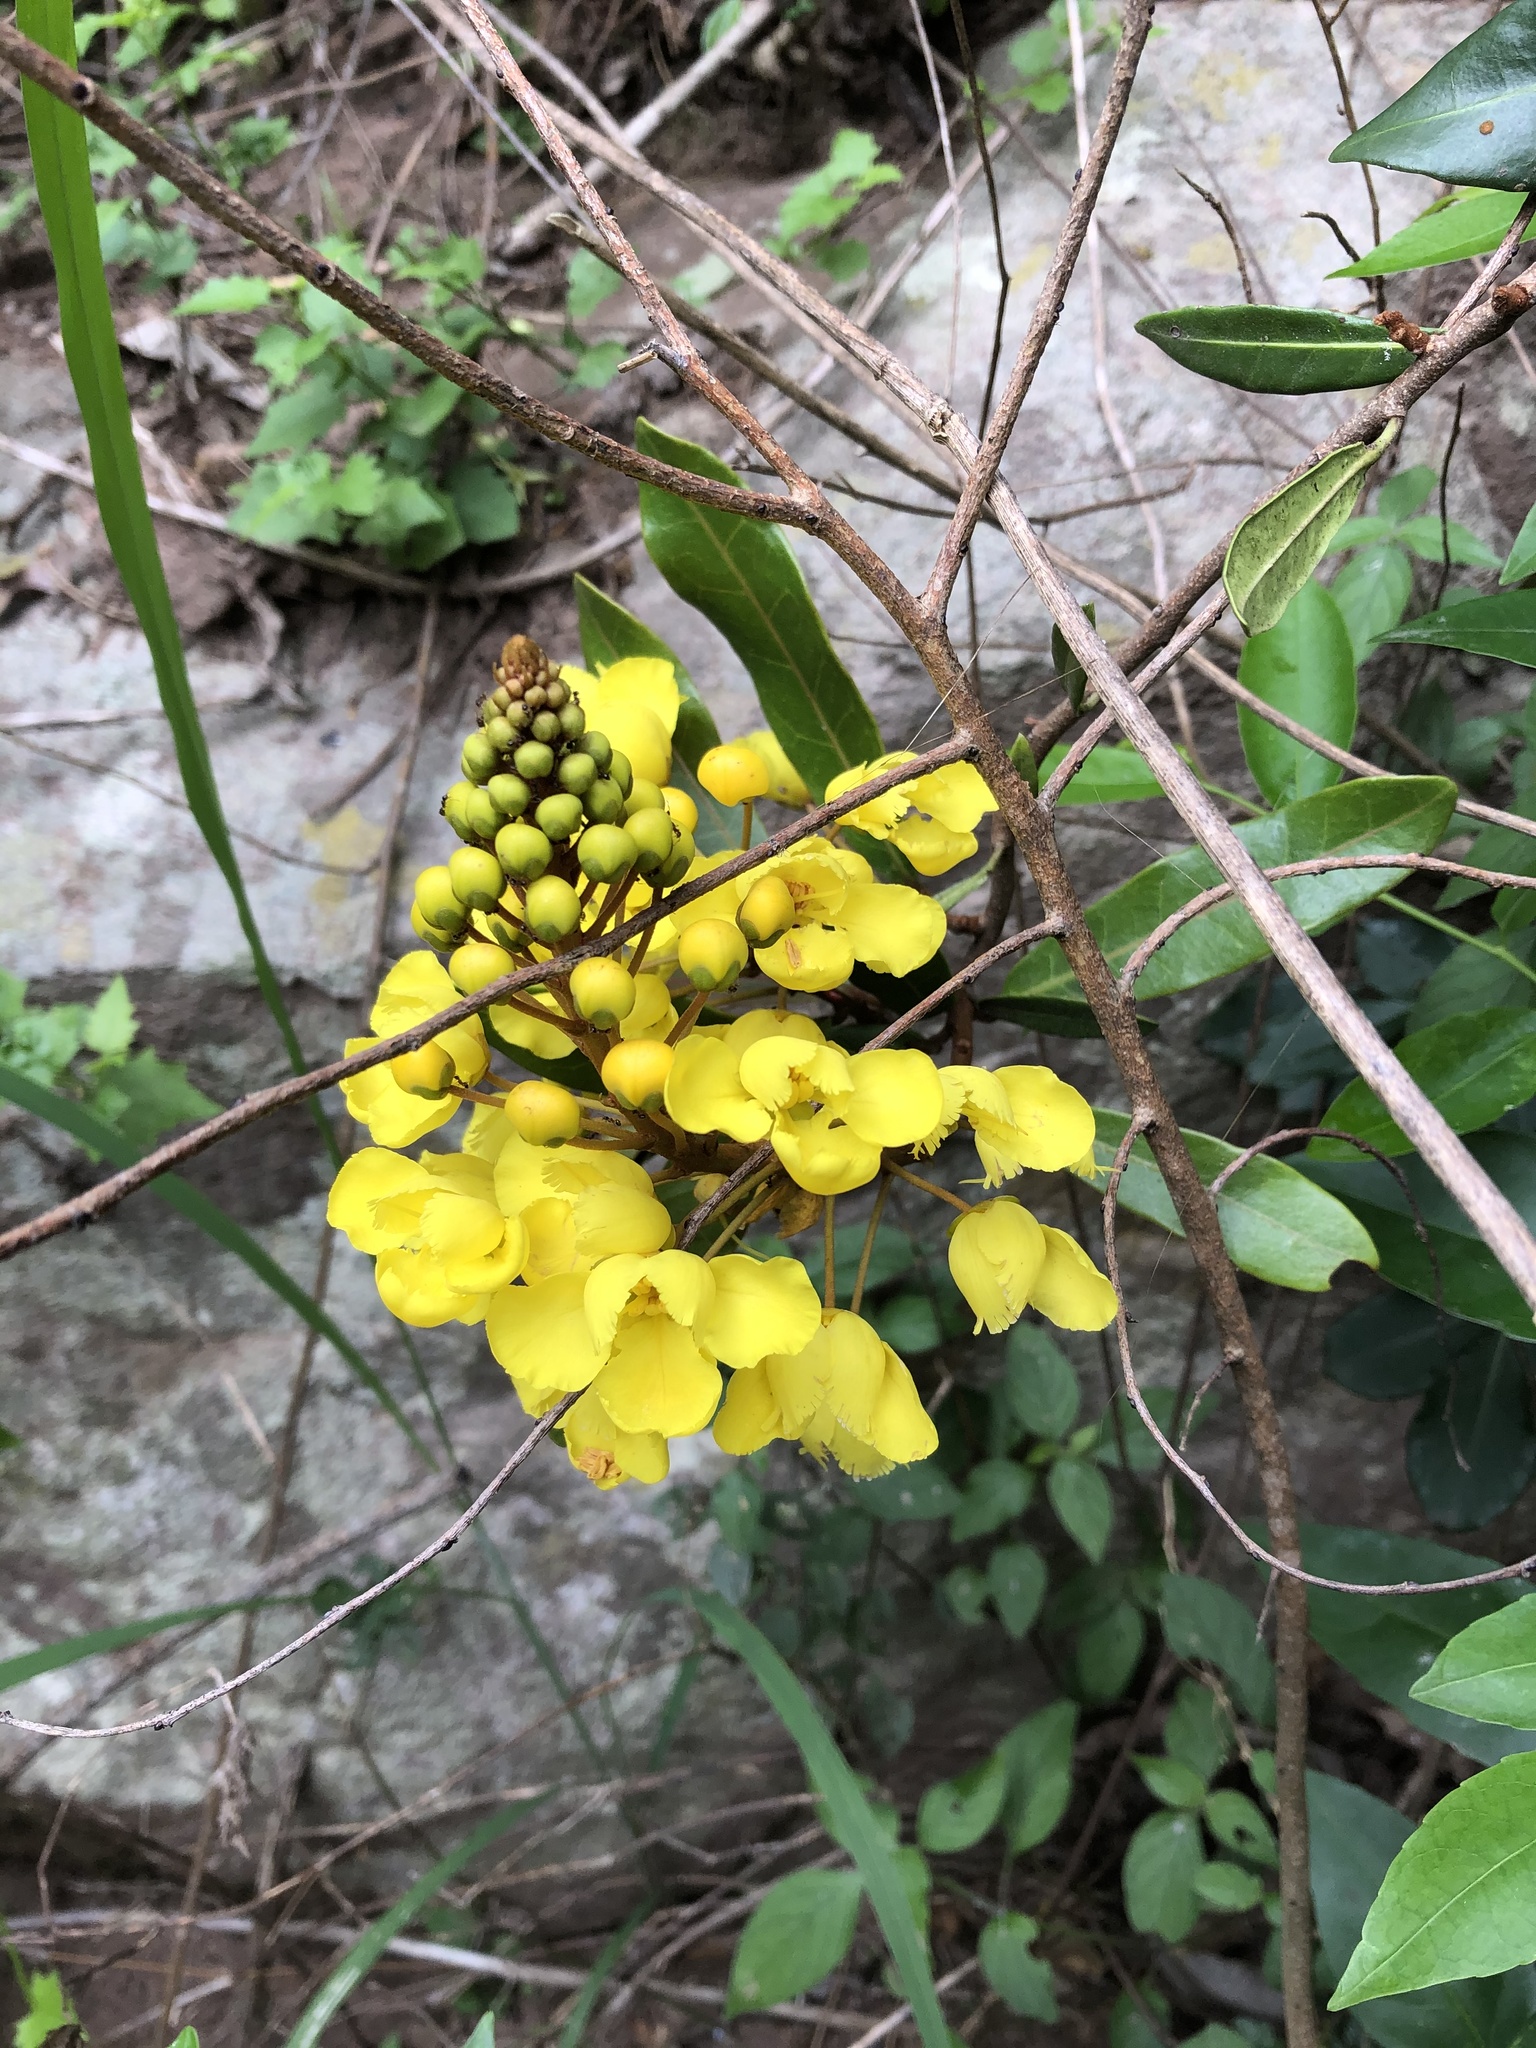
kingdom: Plantae
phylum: Tracheophyta
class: Magnoliopsida
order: Malpighiales
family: Malpighiaceae
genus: Acridocarpus
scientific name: Acridocarpus natalitius
